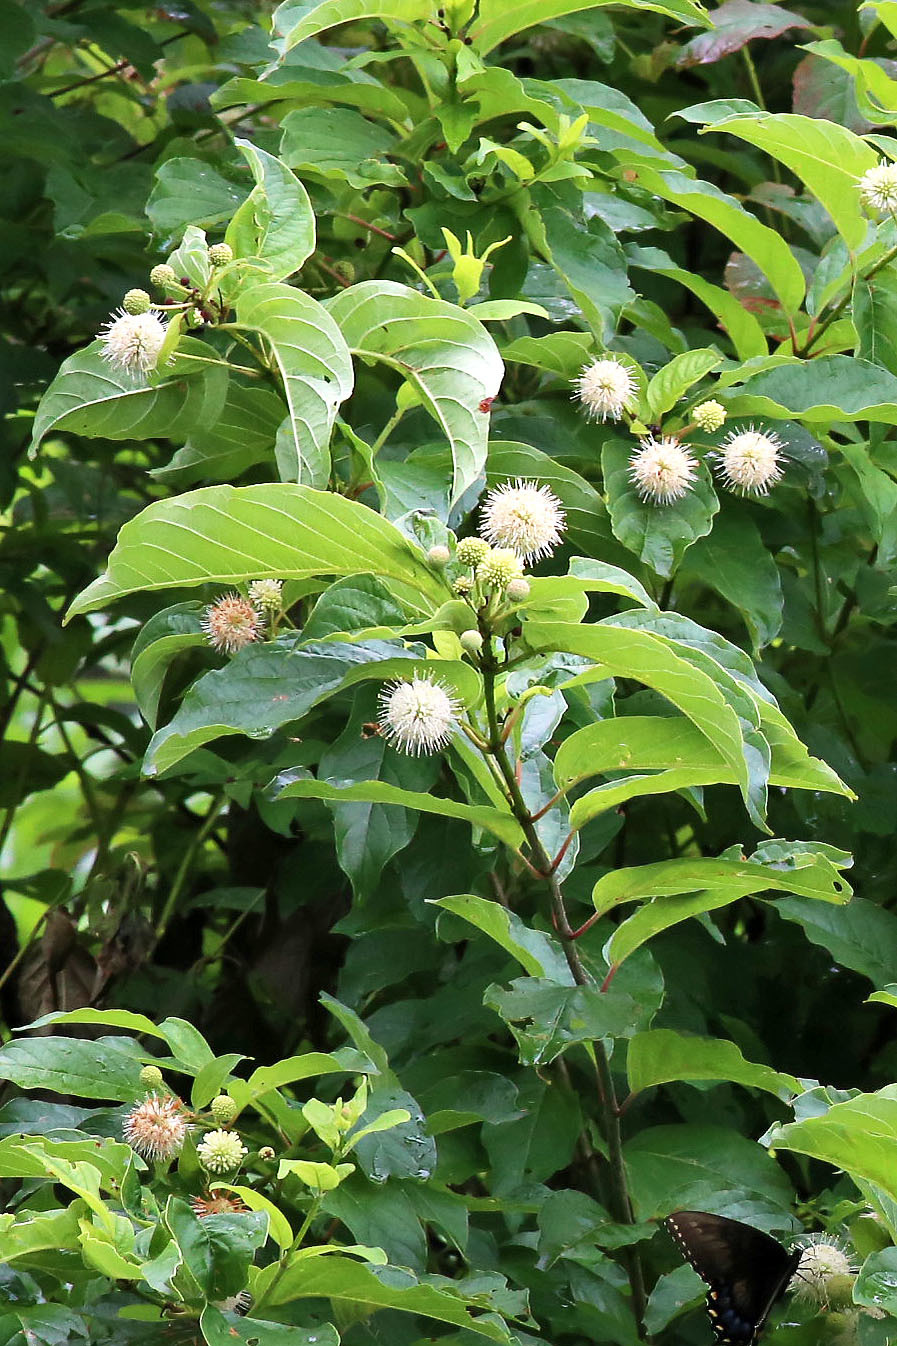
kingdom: Plantae
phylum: Tracheophyta
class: Magnoliopsida
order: Gentianales
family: Rubiaceae
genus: Cephalanthus
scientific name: Cephalanthus occidentalis
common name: Button-willow
